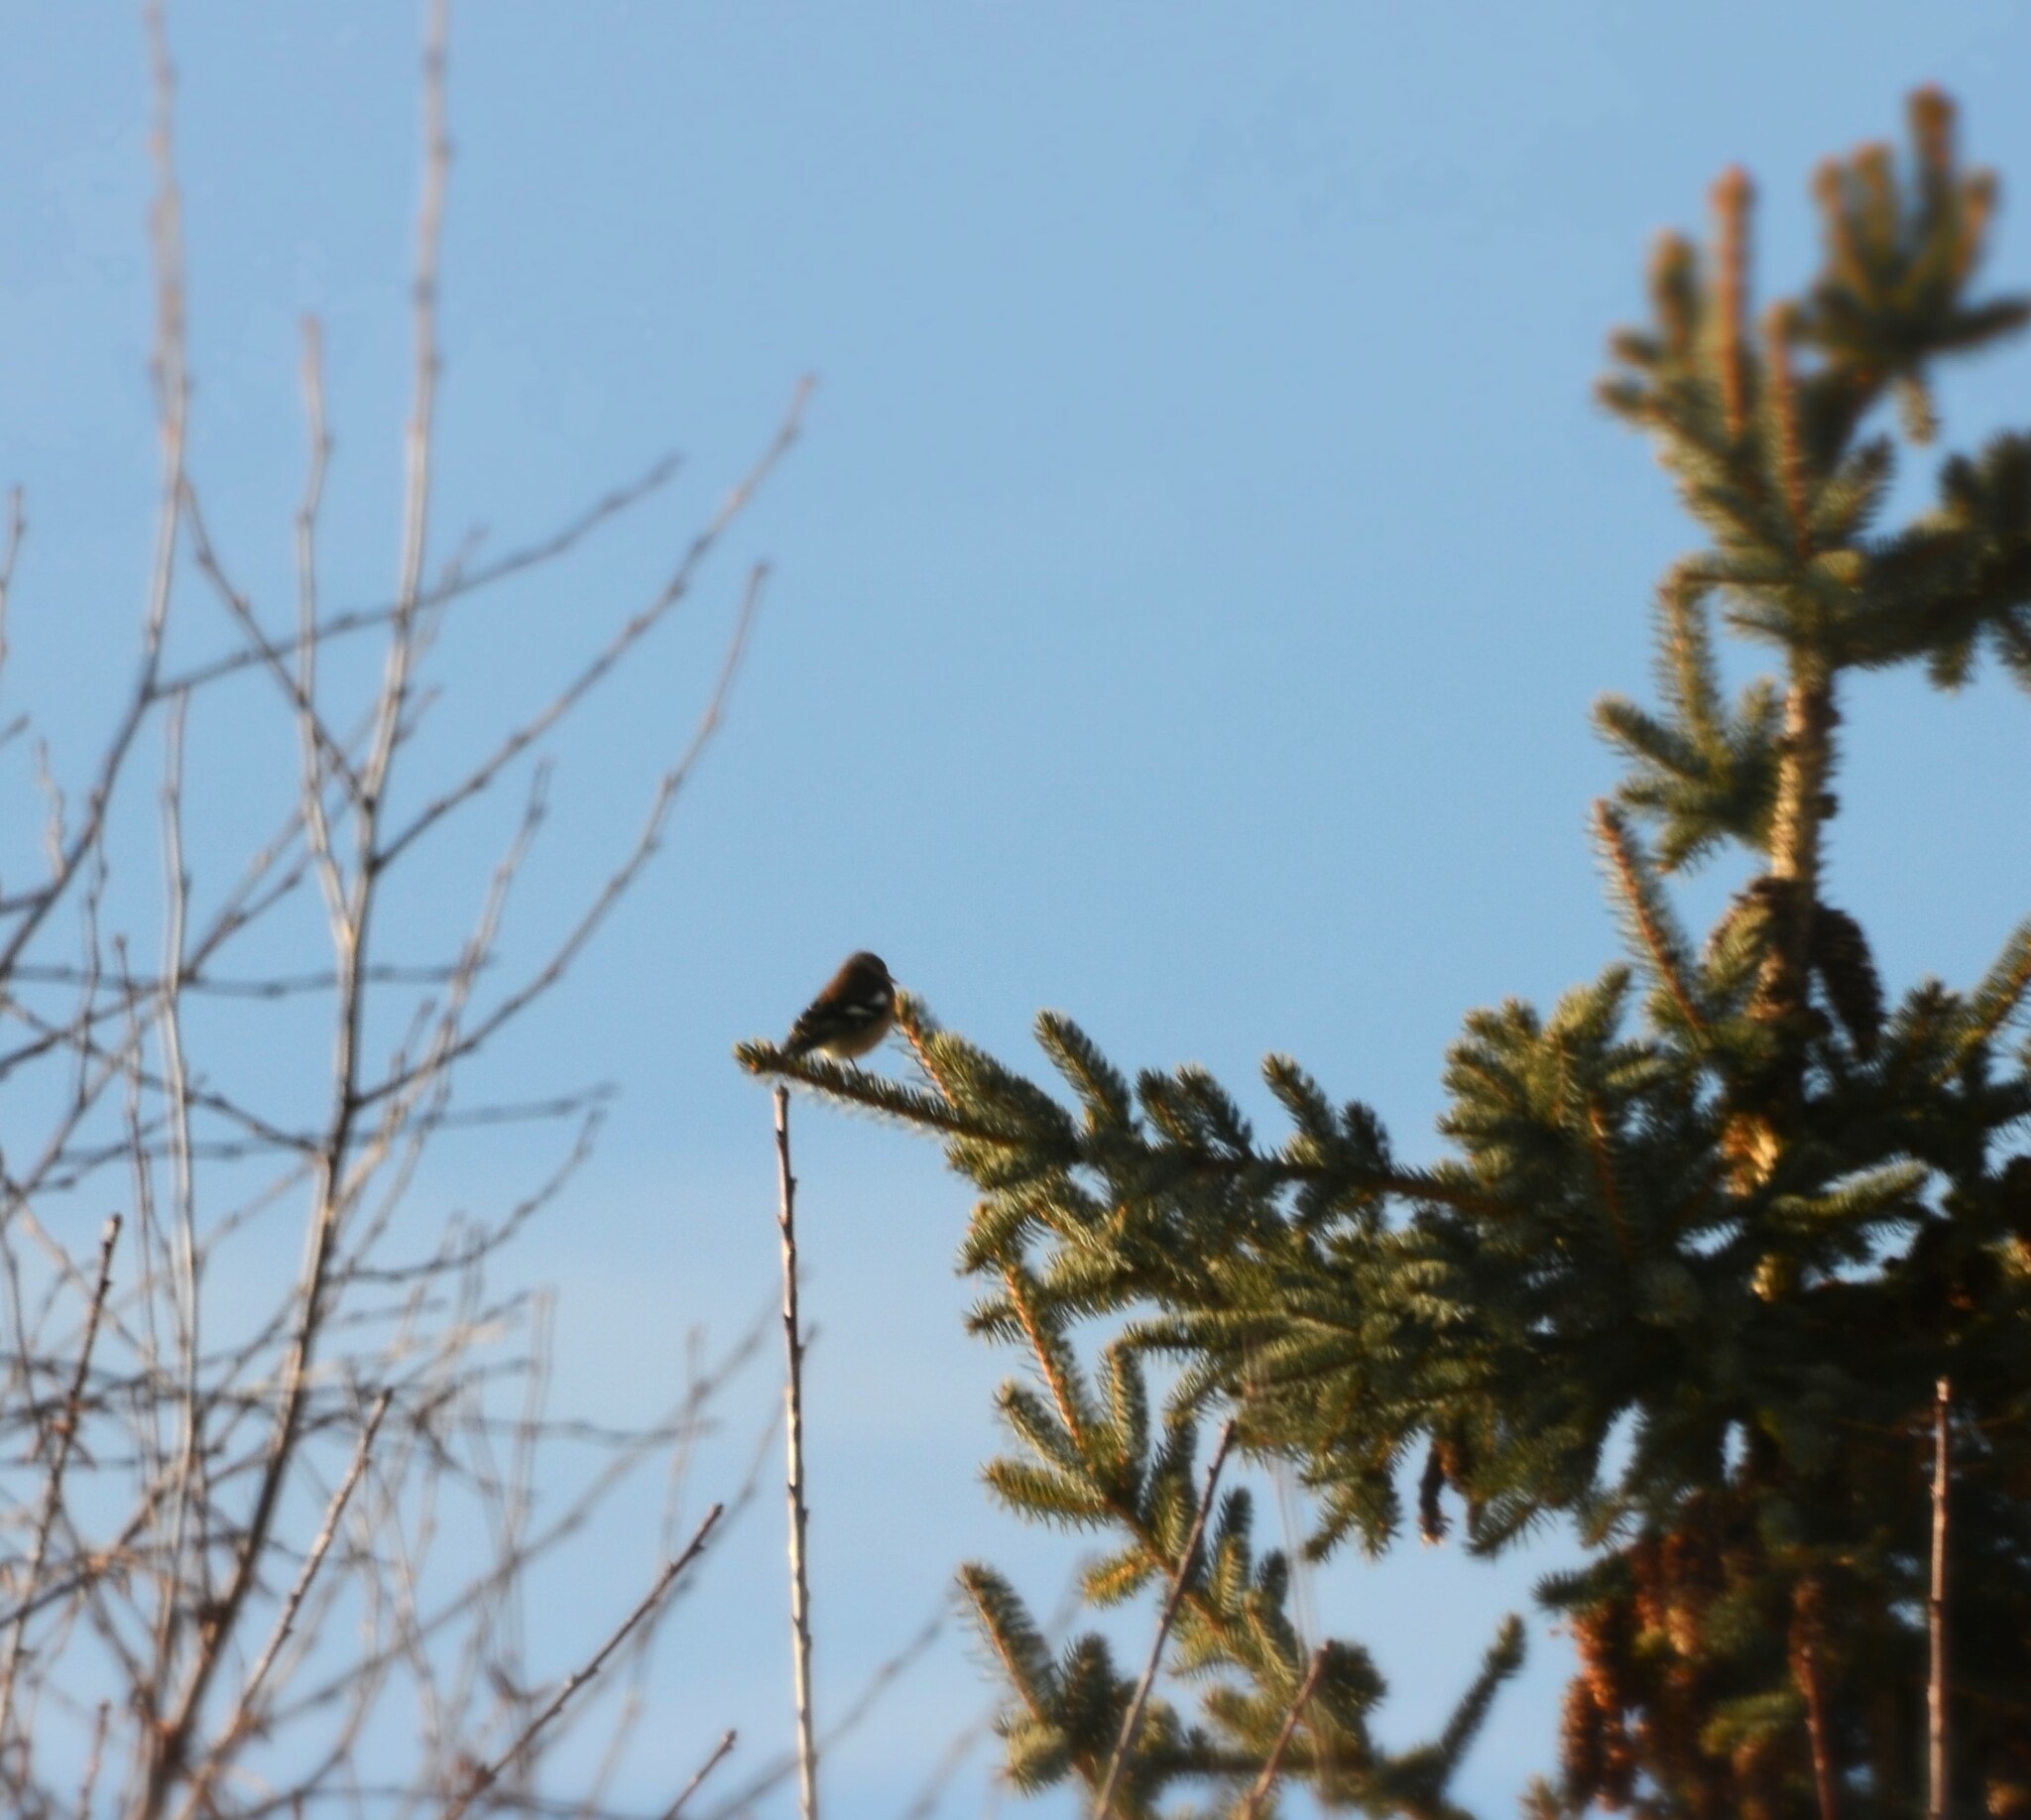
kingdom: Animalia
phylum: Chordata
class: Aves
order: Passeriformes
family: Fringillidae
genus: Fringilla
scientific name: Fringilla coelebs
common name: Common chaffinch
